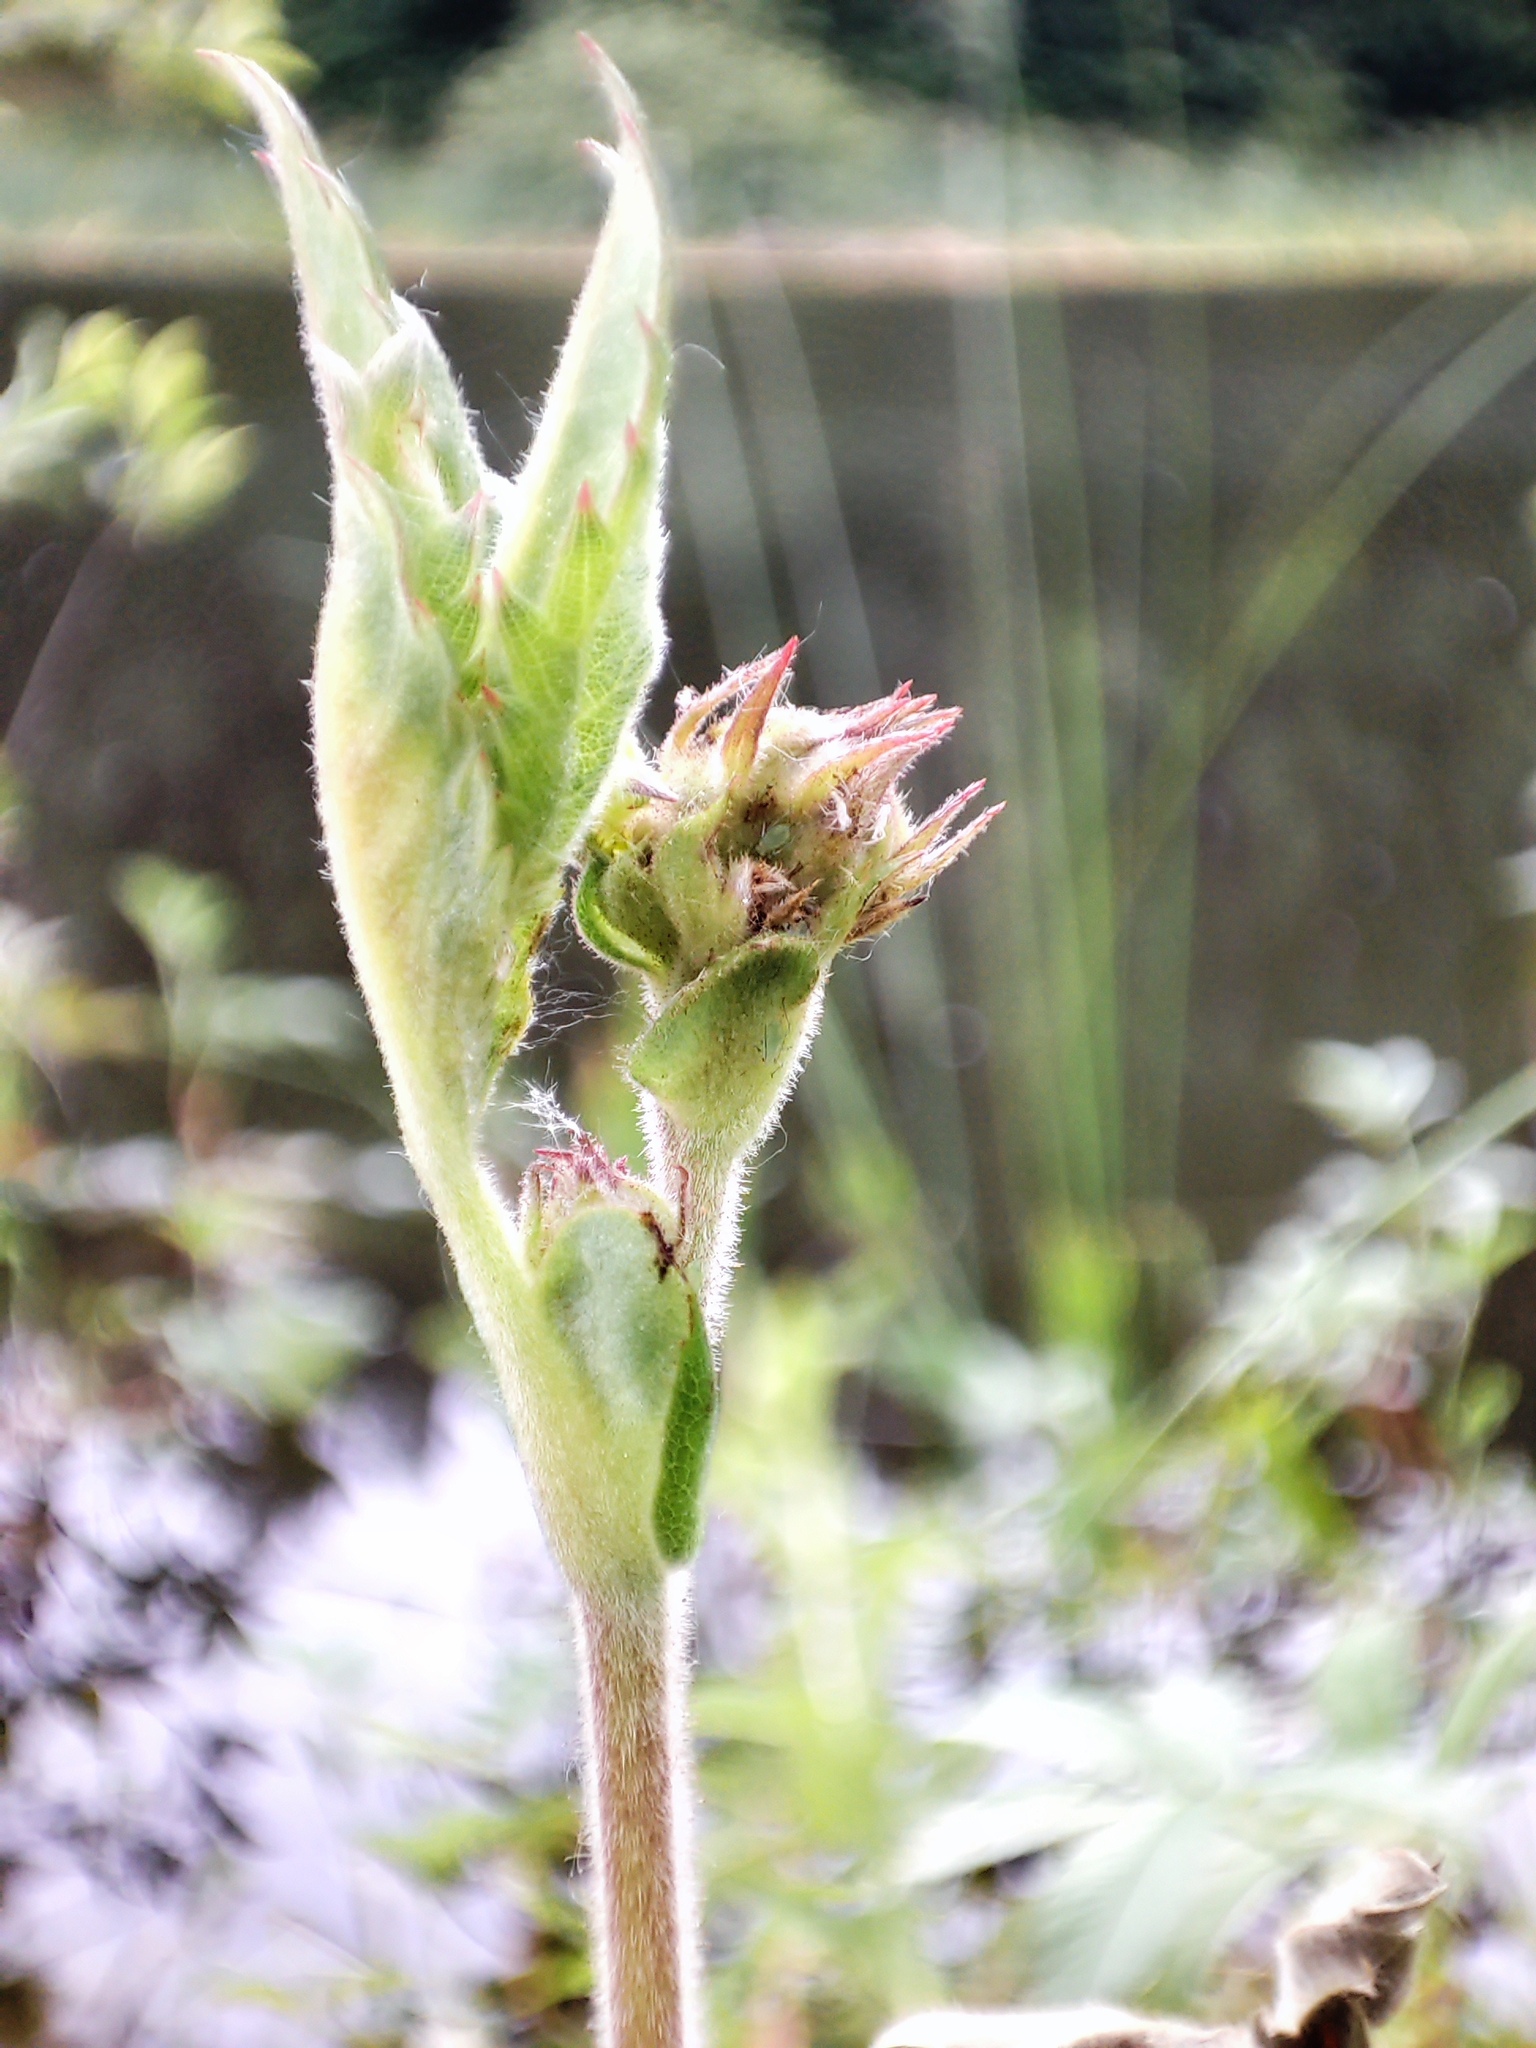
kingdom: Plantae
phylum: Tracheophyta
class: Magnoliopsida
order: Rosales
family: Rosaceae
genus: Comarum
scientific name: Comarum palustre
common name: Marsh cinquefoil
